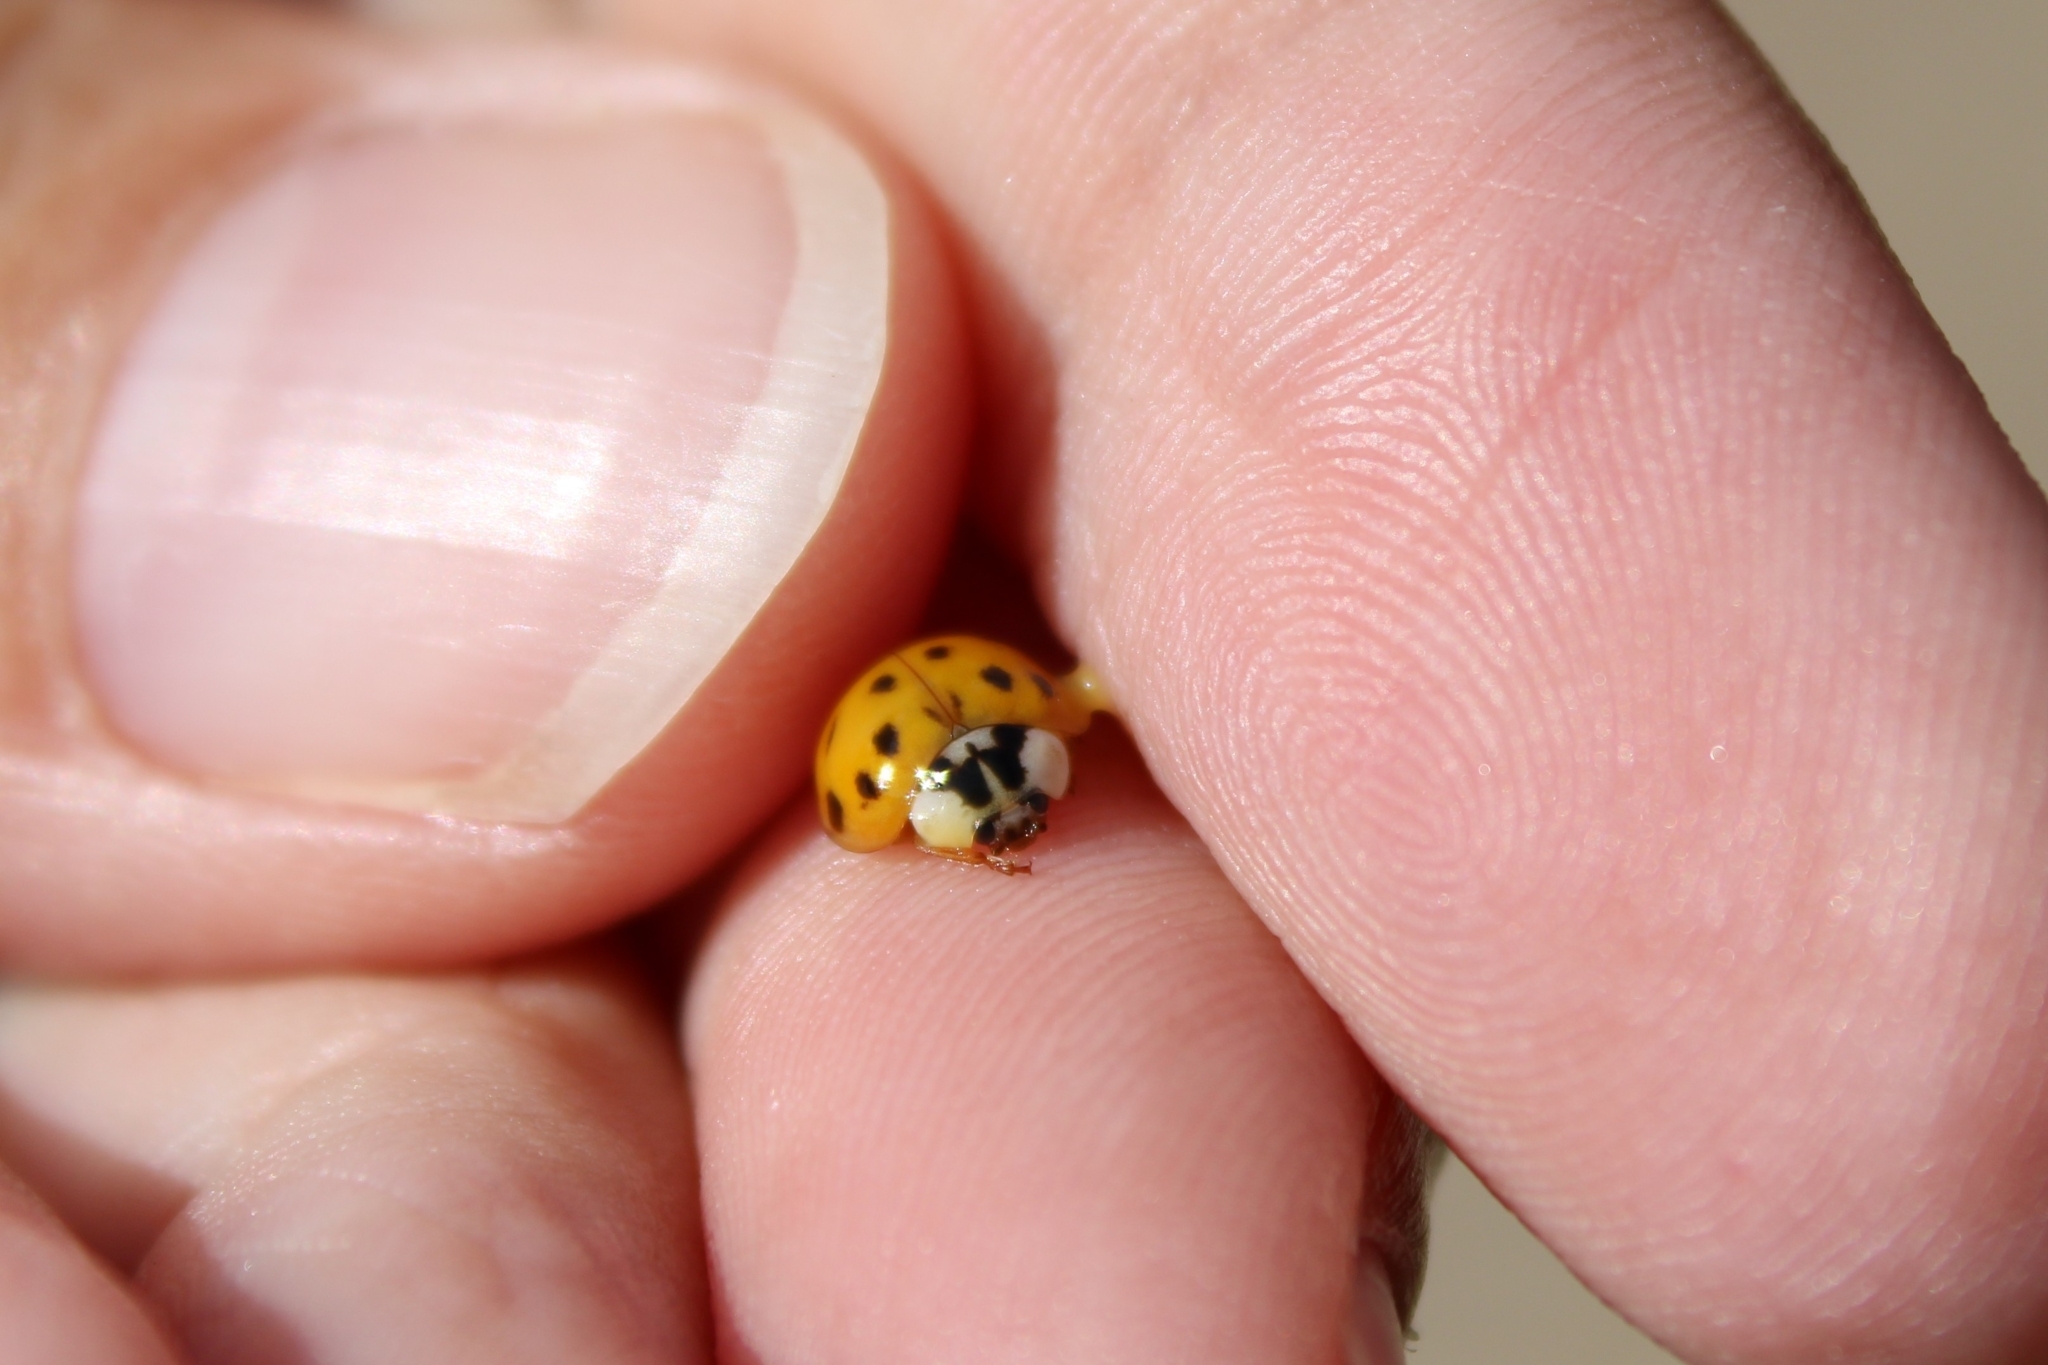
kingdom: Animalia
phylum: Arthropoda
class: Insecta
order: Coleoptera
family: Coccinellidae
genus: Harmonia
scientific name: Harmonia axyridis
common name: Harlequin ladybird
